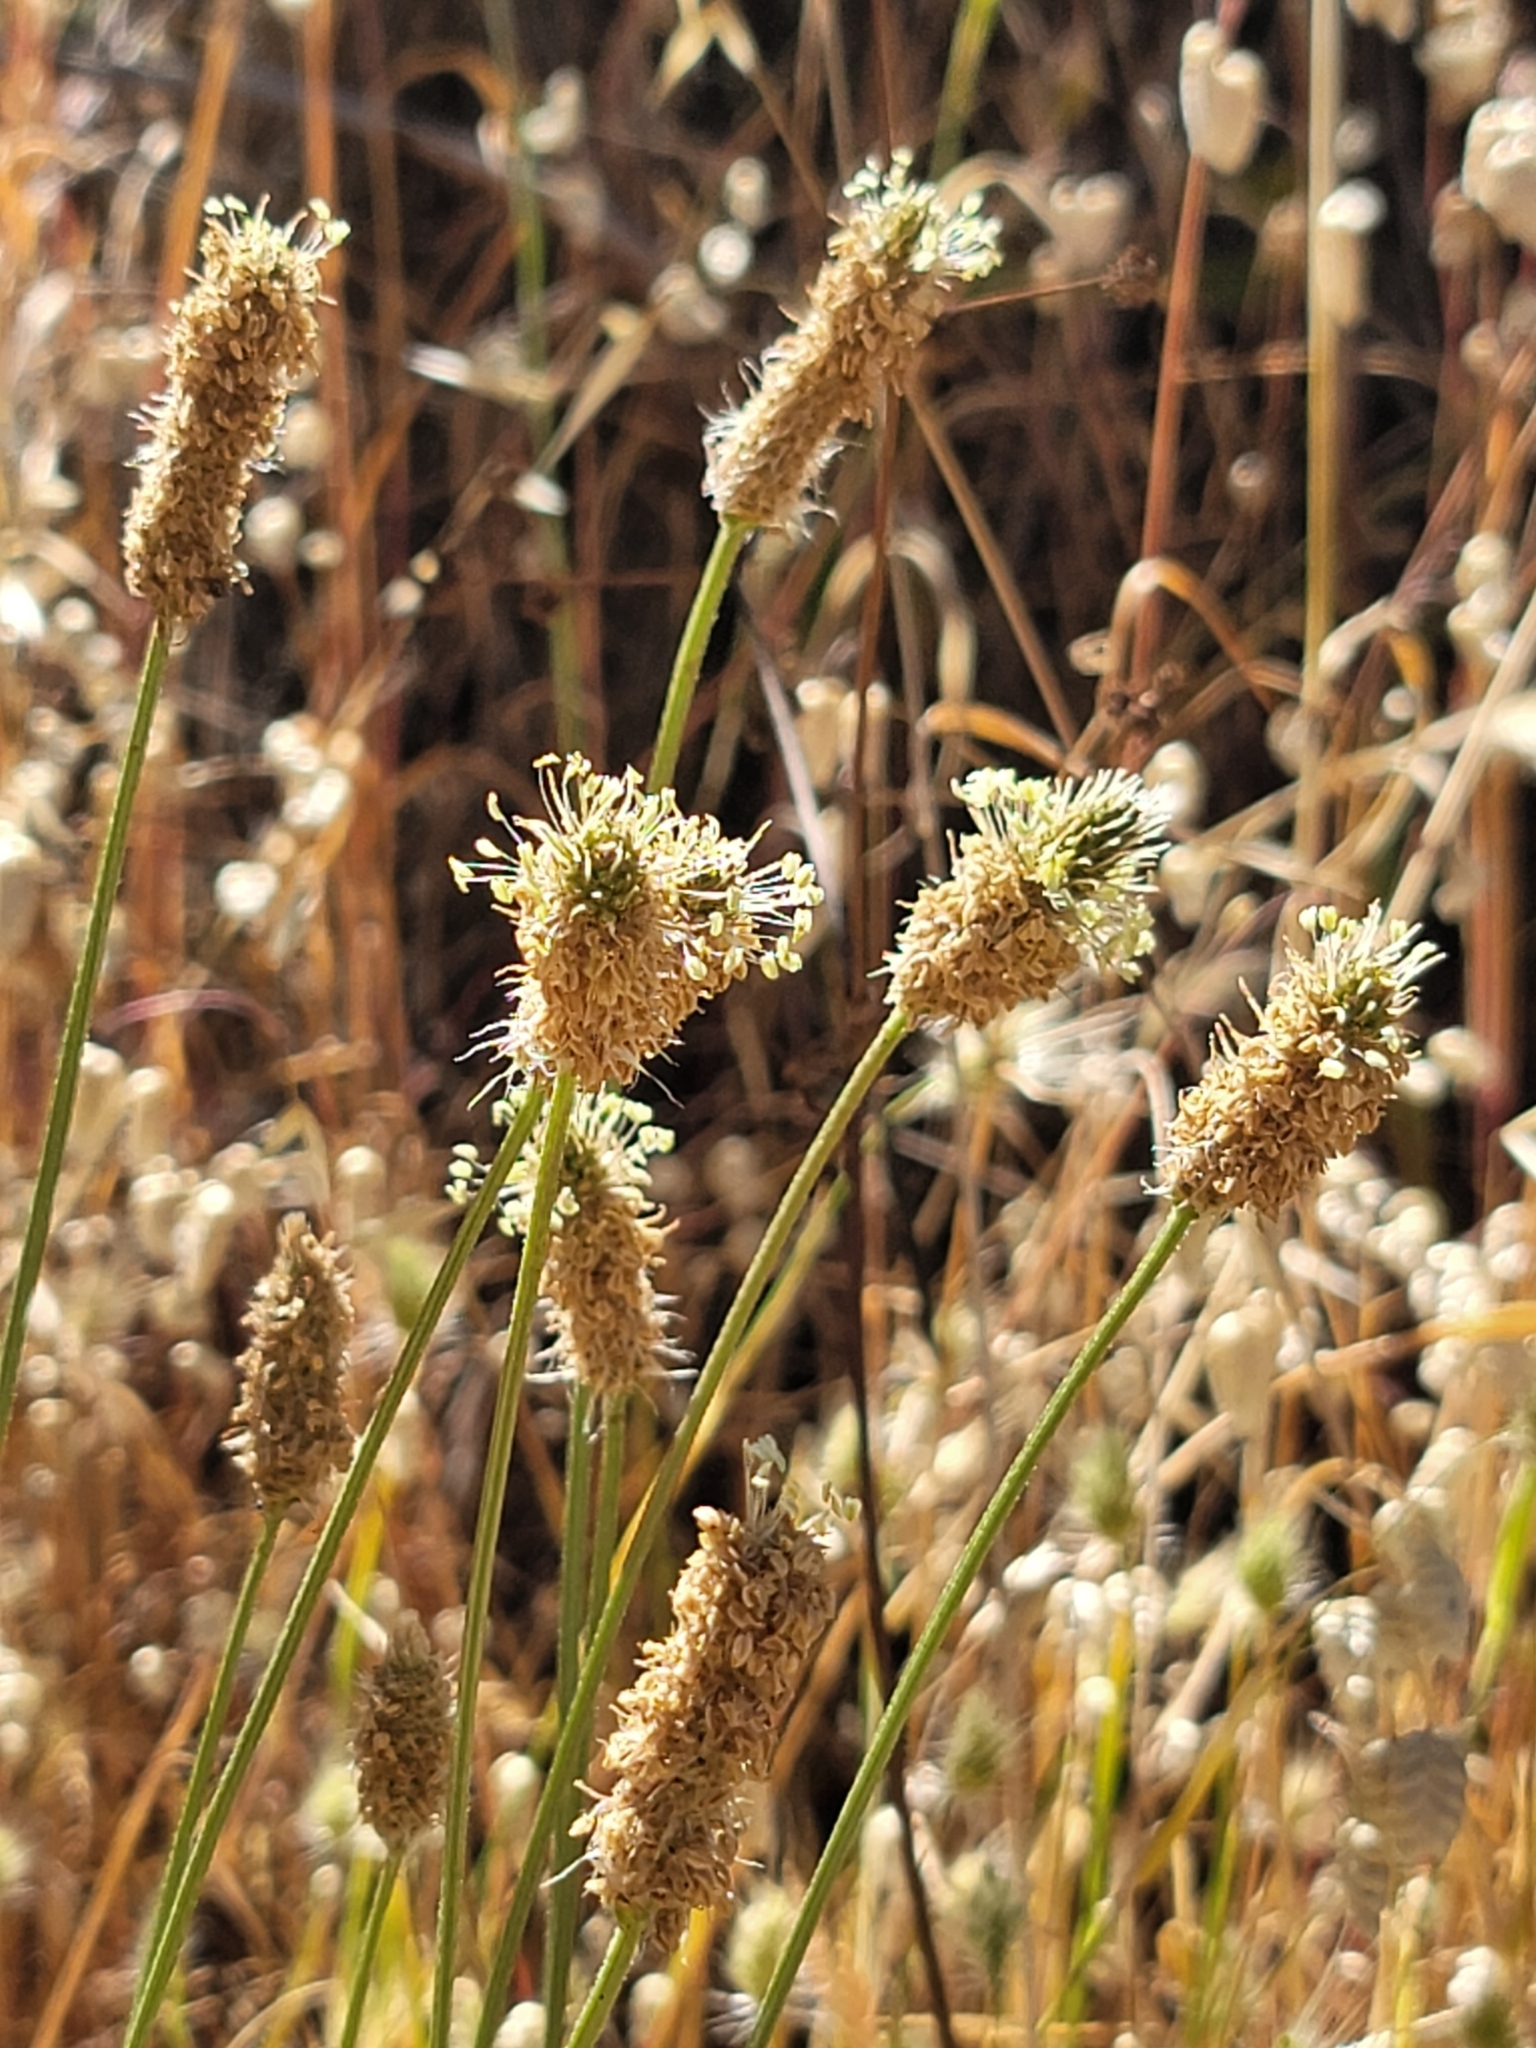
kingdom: Plantae
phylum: Tracheophyta
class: Magnoliopsida
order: Lamiales
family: Plantaginaceae
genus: Plantago
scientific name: Plantago lanceolata
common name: Ribwort plantain
